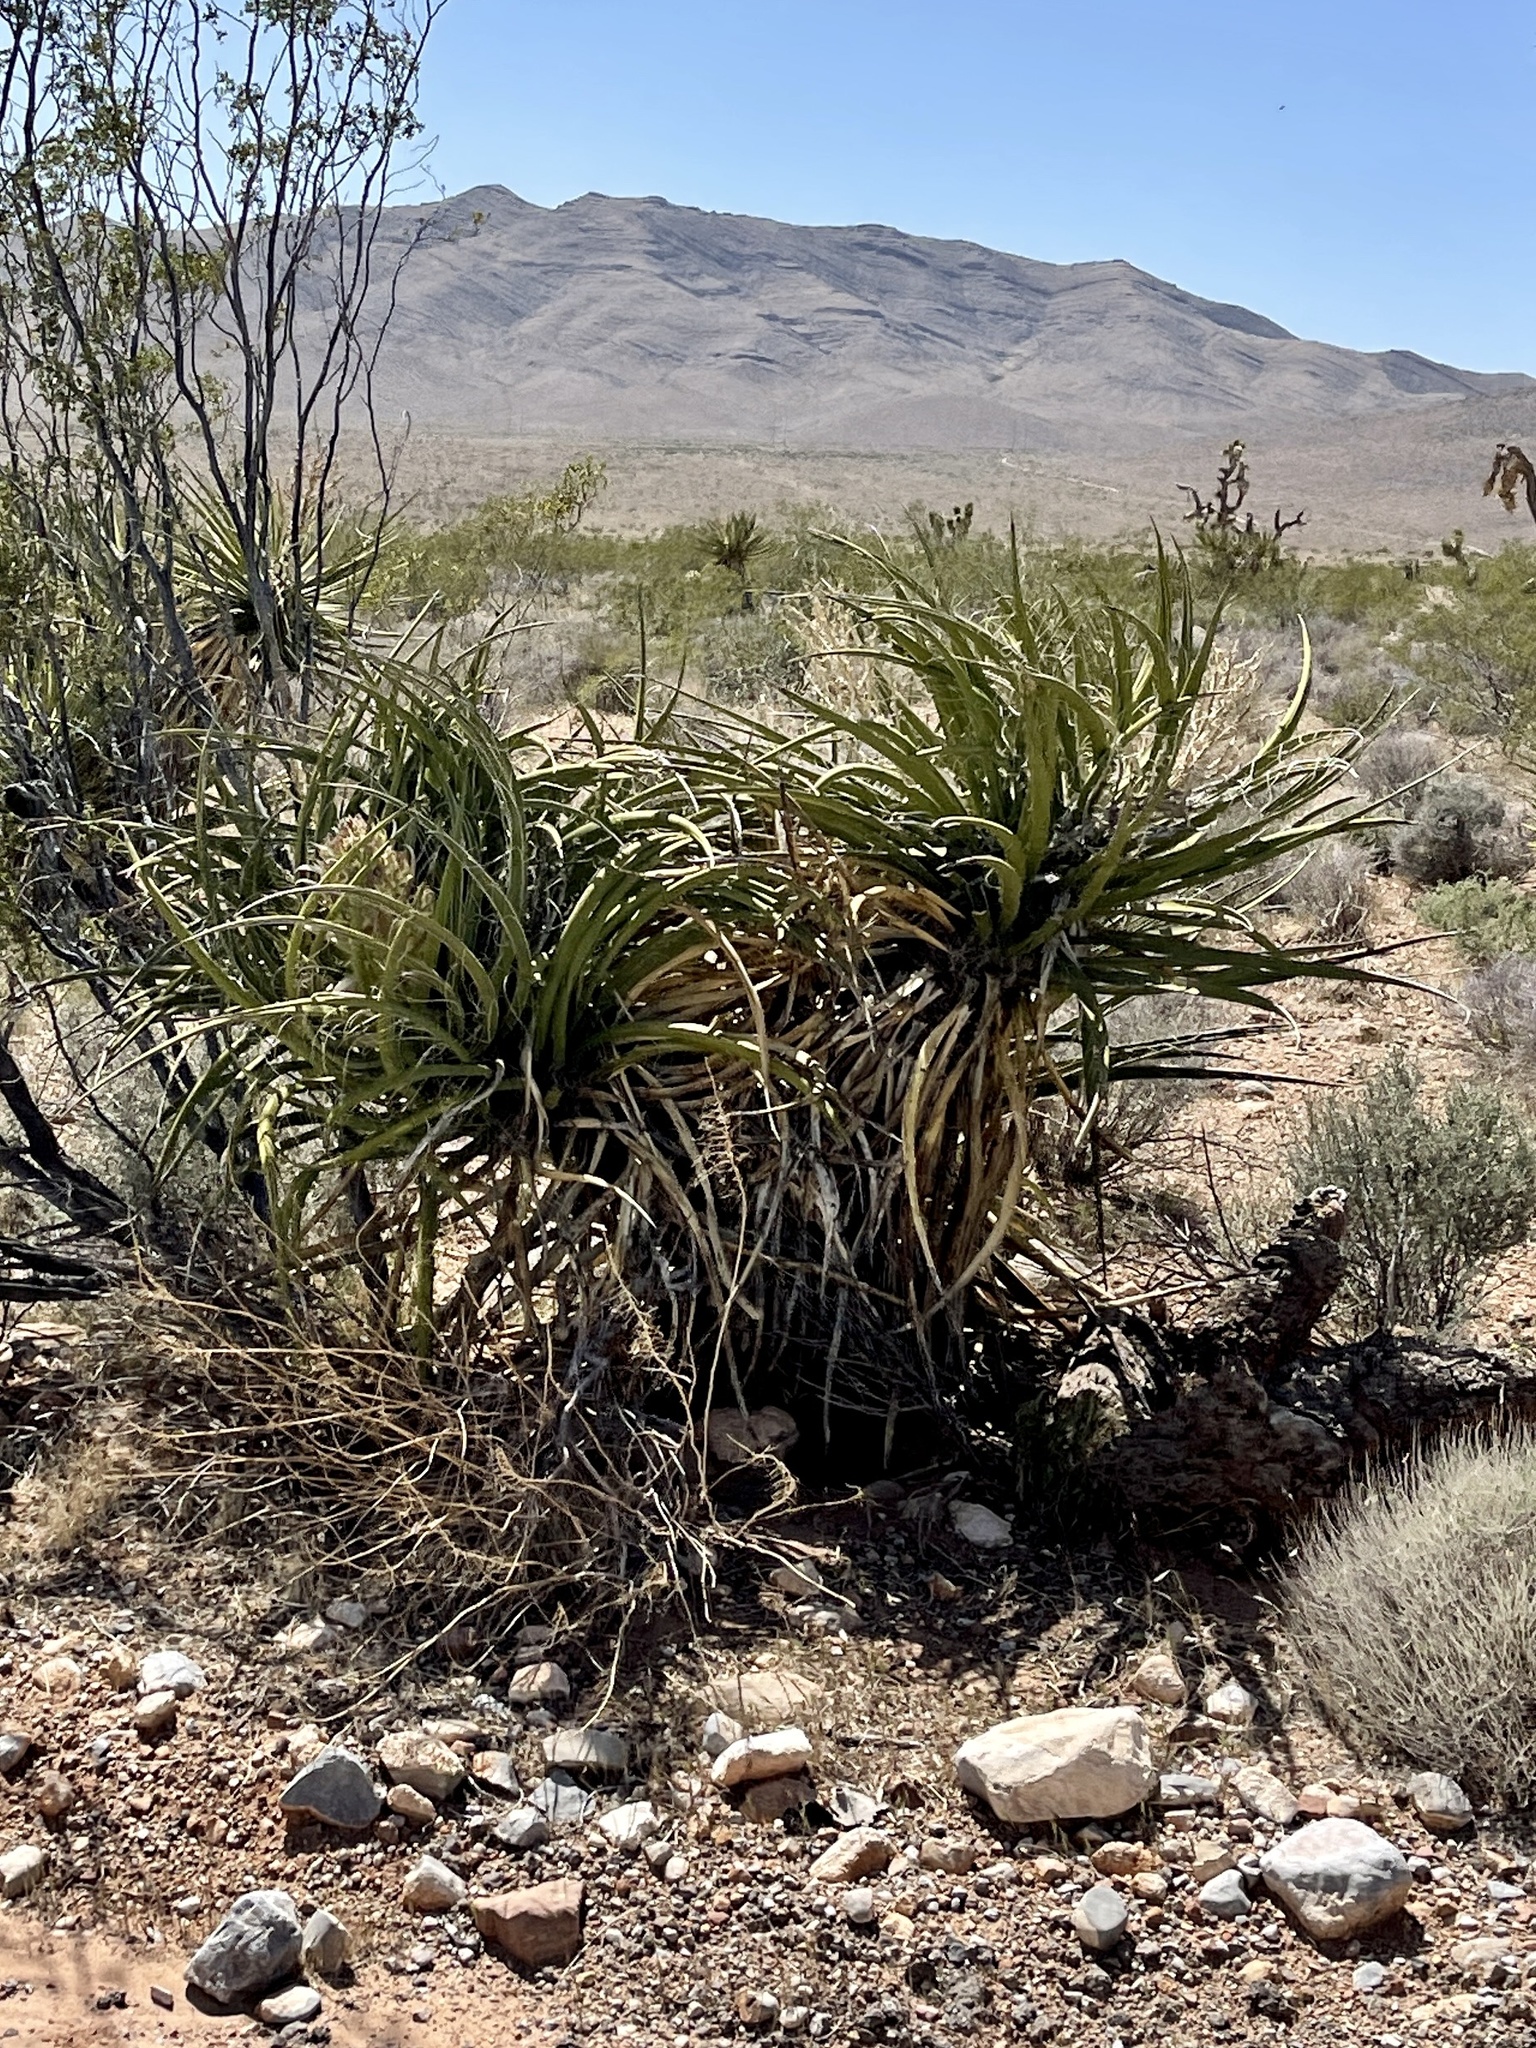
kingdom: Plantae
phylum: Tracheophyta
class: Liliopsida
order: Asparagales
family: Asparagaceae
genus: Yucca
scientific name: Yucca schidigera
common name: Mojave yucca
